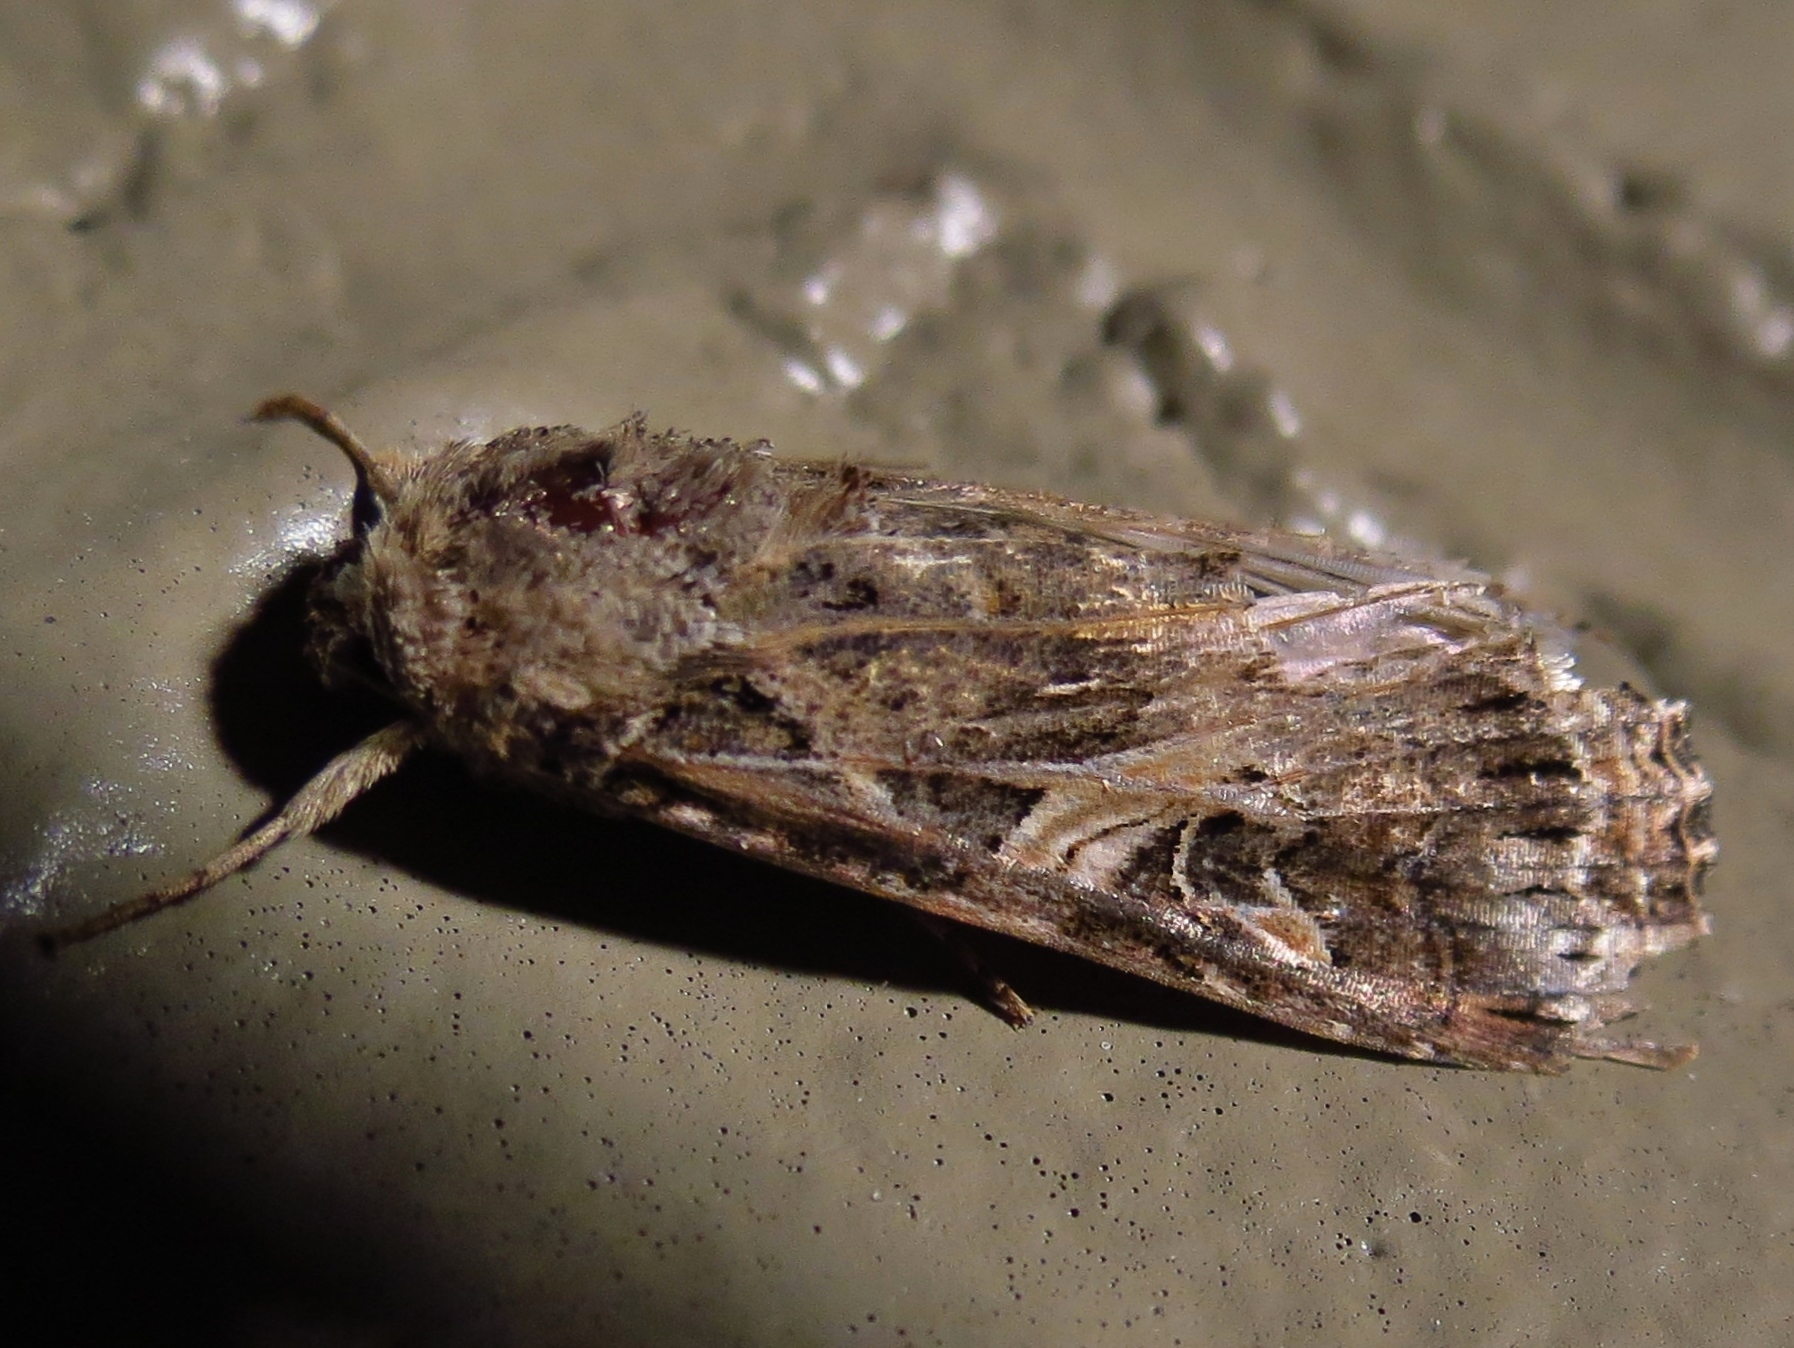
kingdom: Animalia
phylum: Arthropoda
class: Insecta
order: Lepidoptera
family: Noctuidae
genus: Spodoptera
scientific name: Spodoptera ornithogalli
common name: Yellow-striped armyworm
